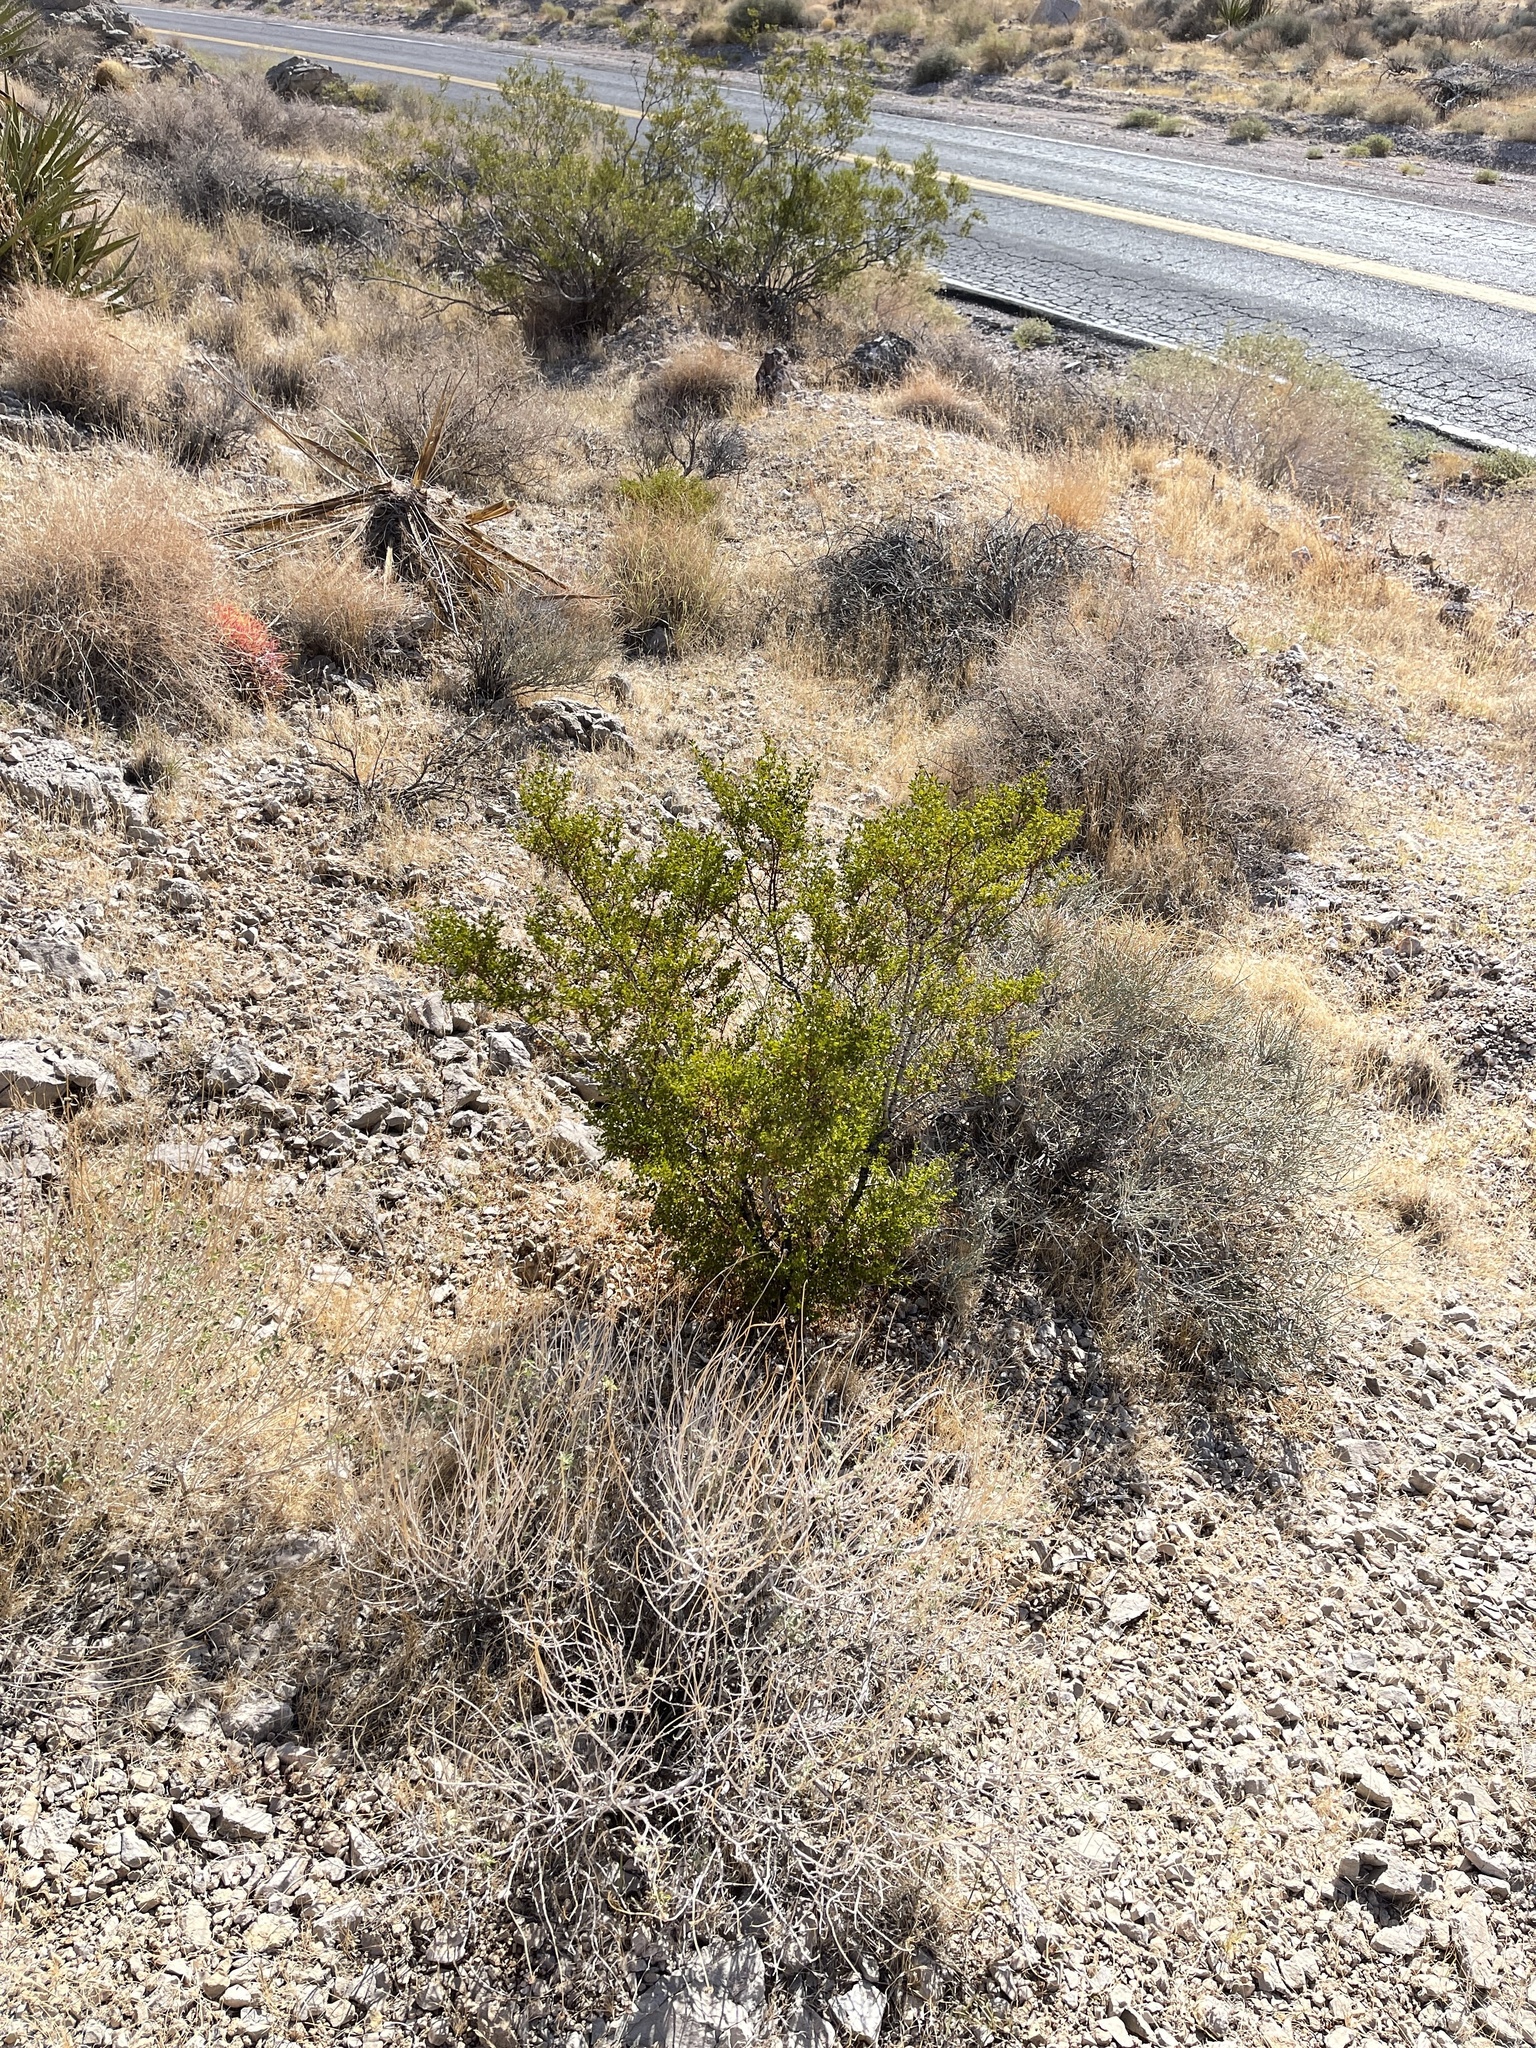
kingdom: Plantae
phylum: Tracheophyta
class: Magnoliopsida
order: Zygophyllales
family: Zygophyllaceae
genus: Larrea
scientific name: Larrea tridentata
